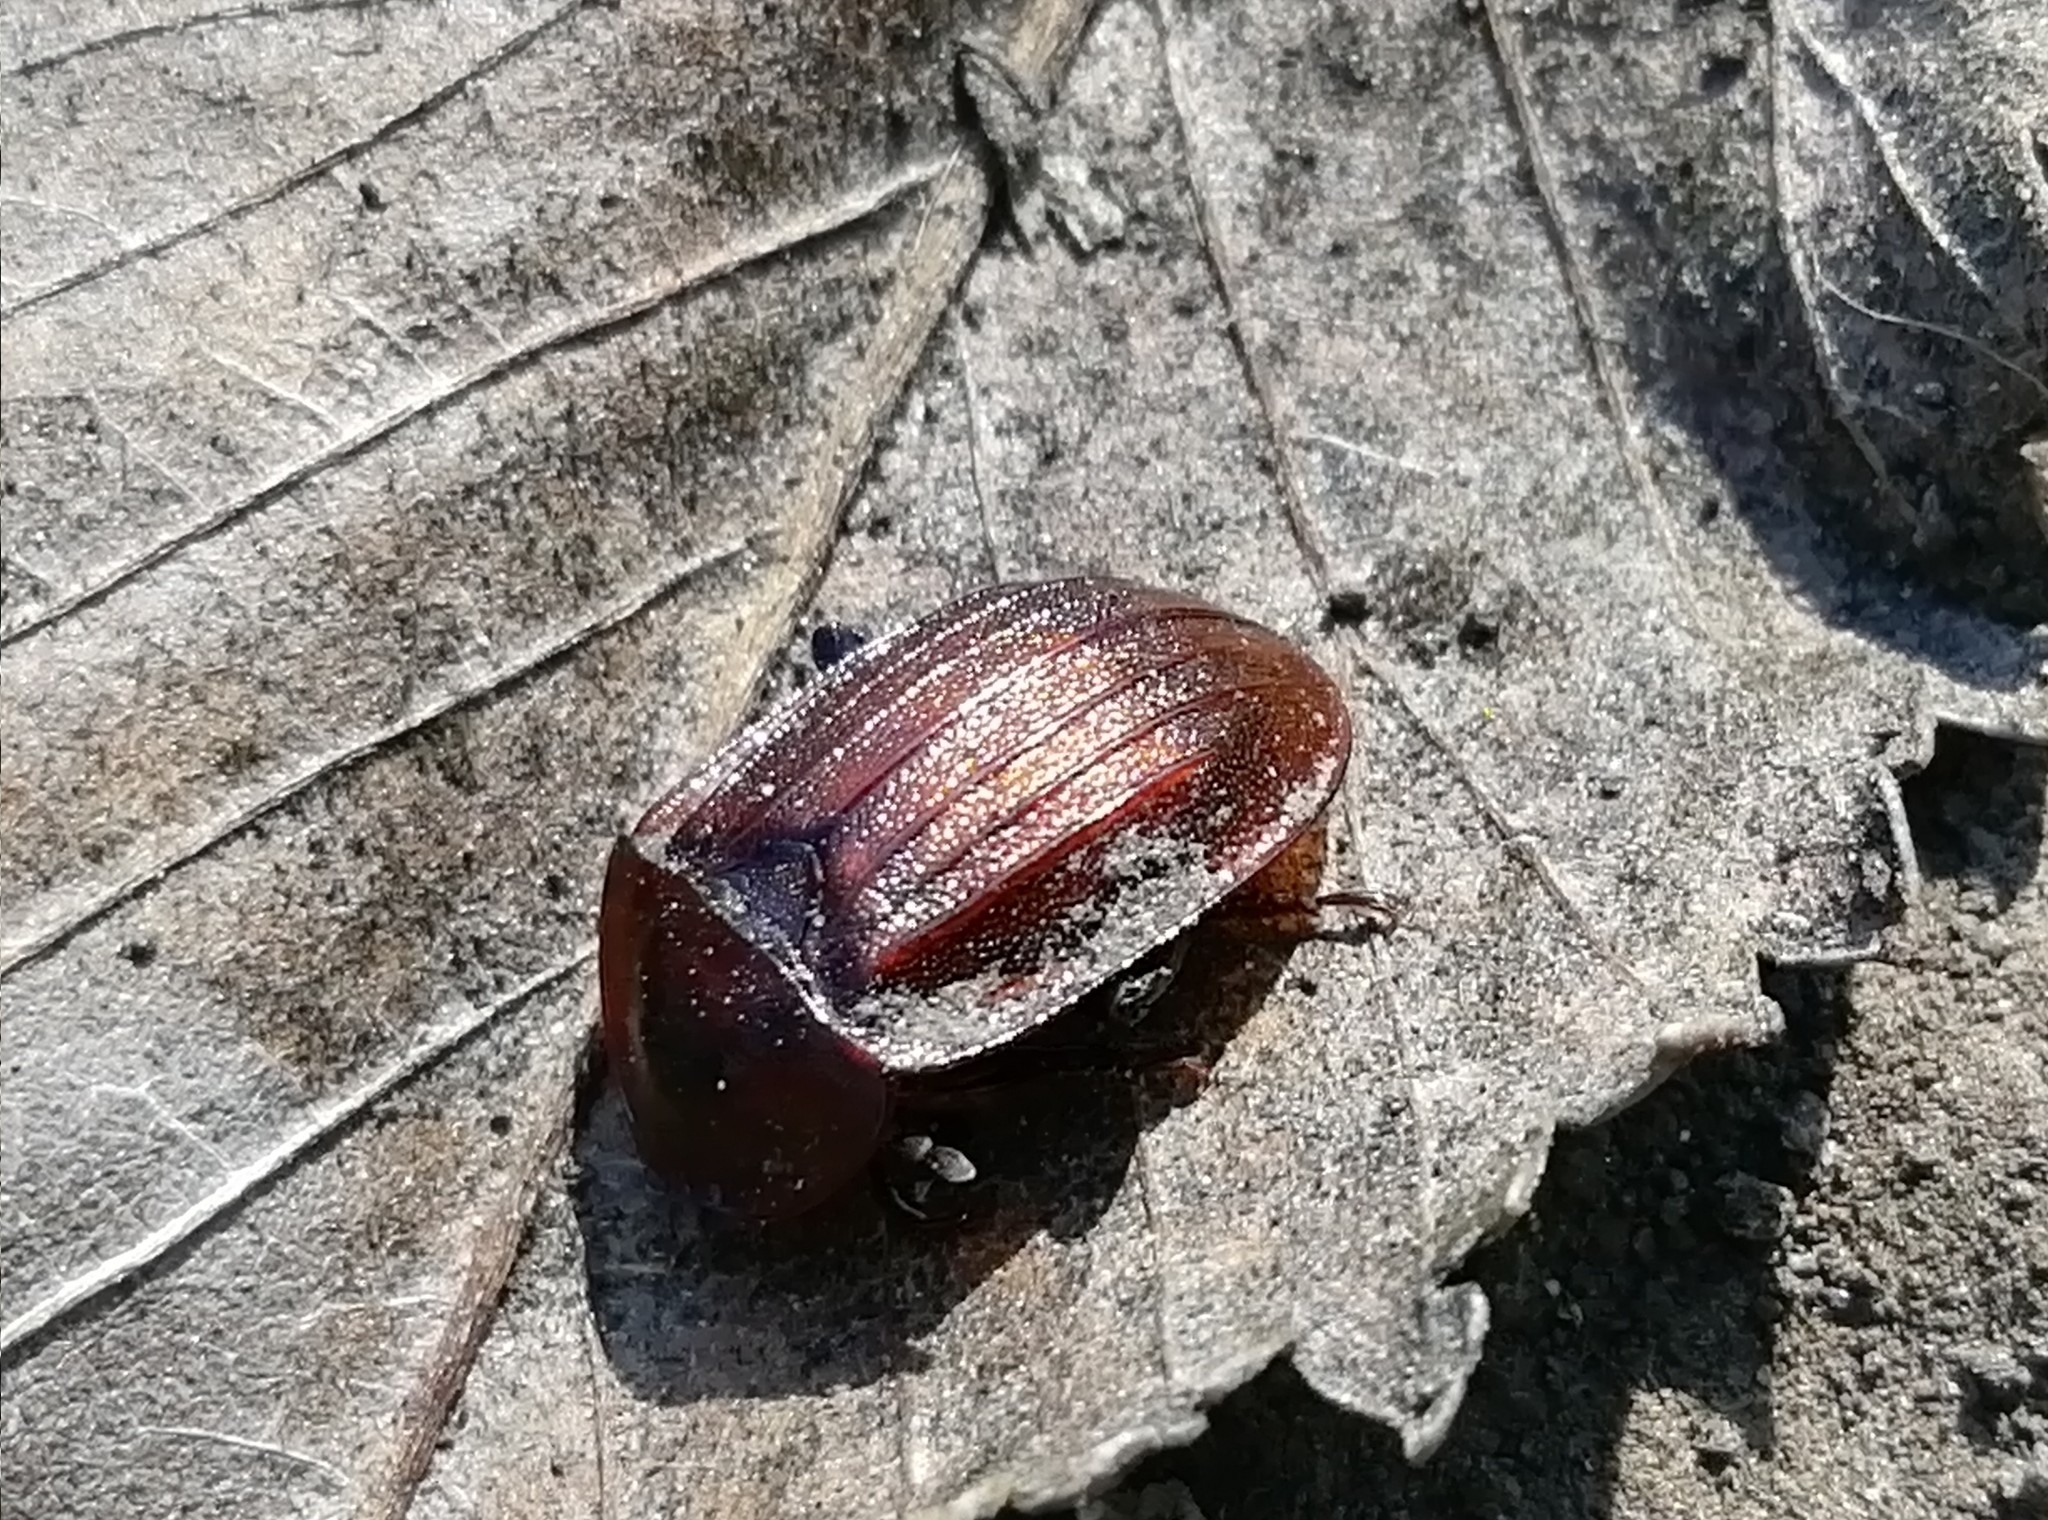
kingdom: Animalia
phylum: Arthropoda
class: Insecta
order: Coleoptera
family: Staphylinidae
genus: Silpha
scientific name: Silpha atrata
